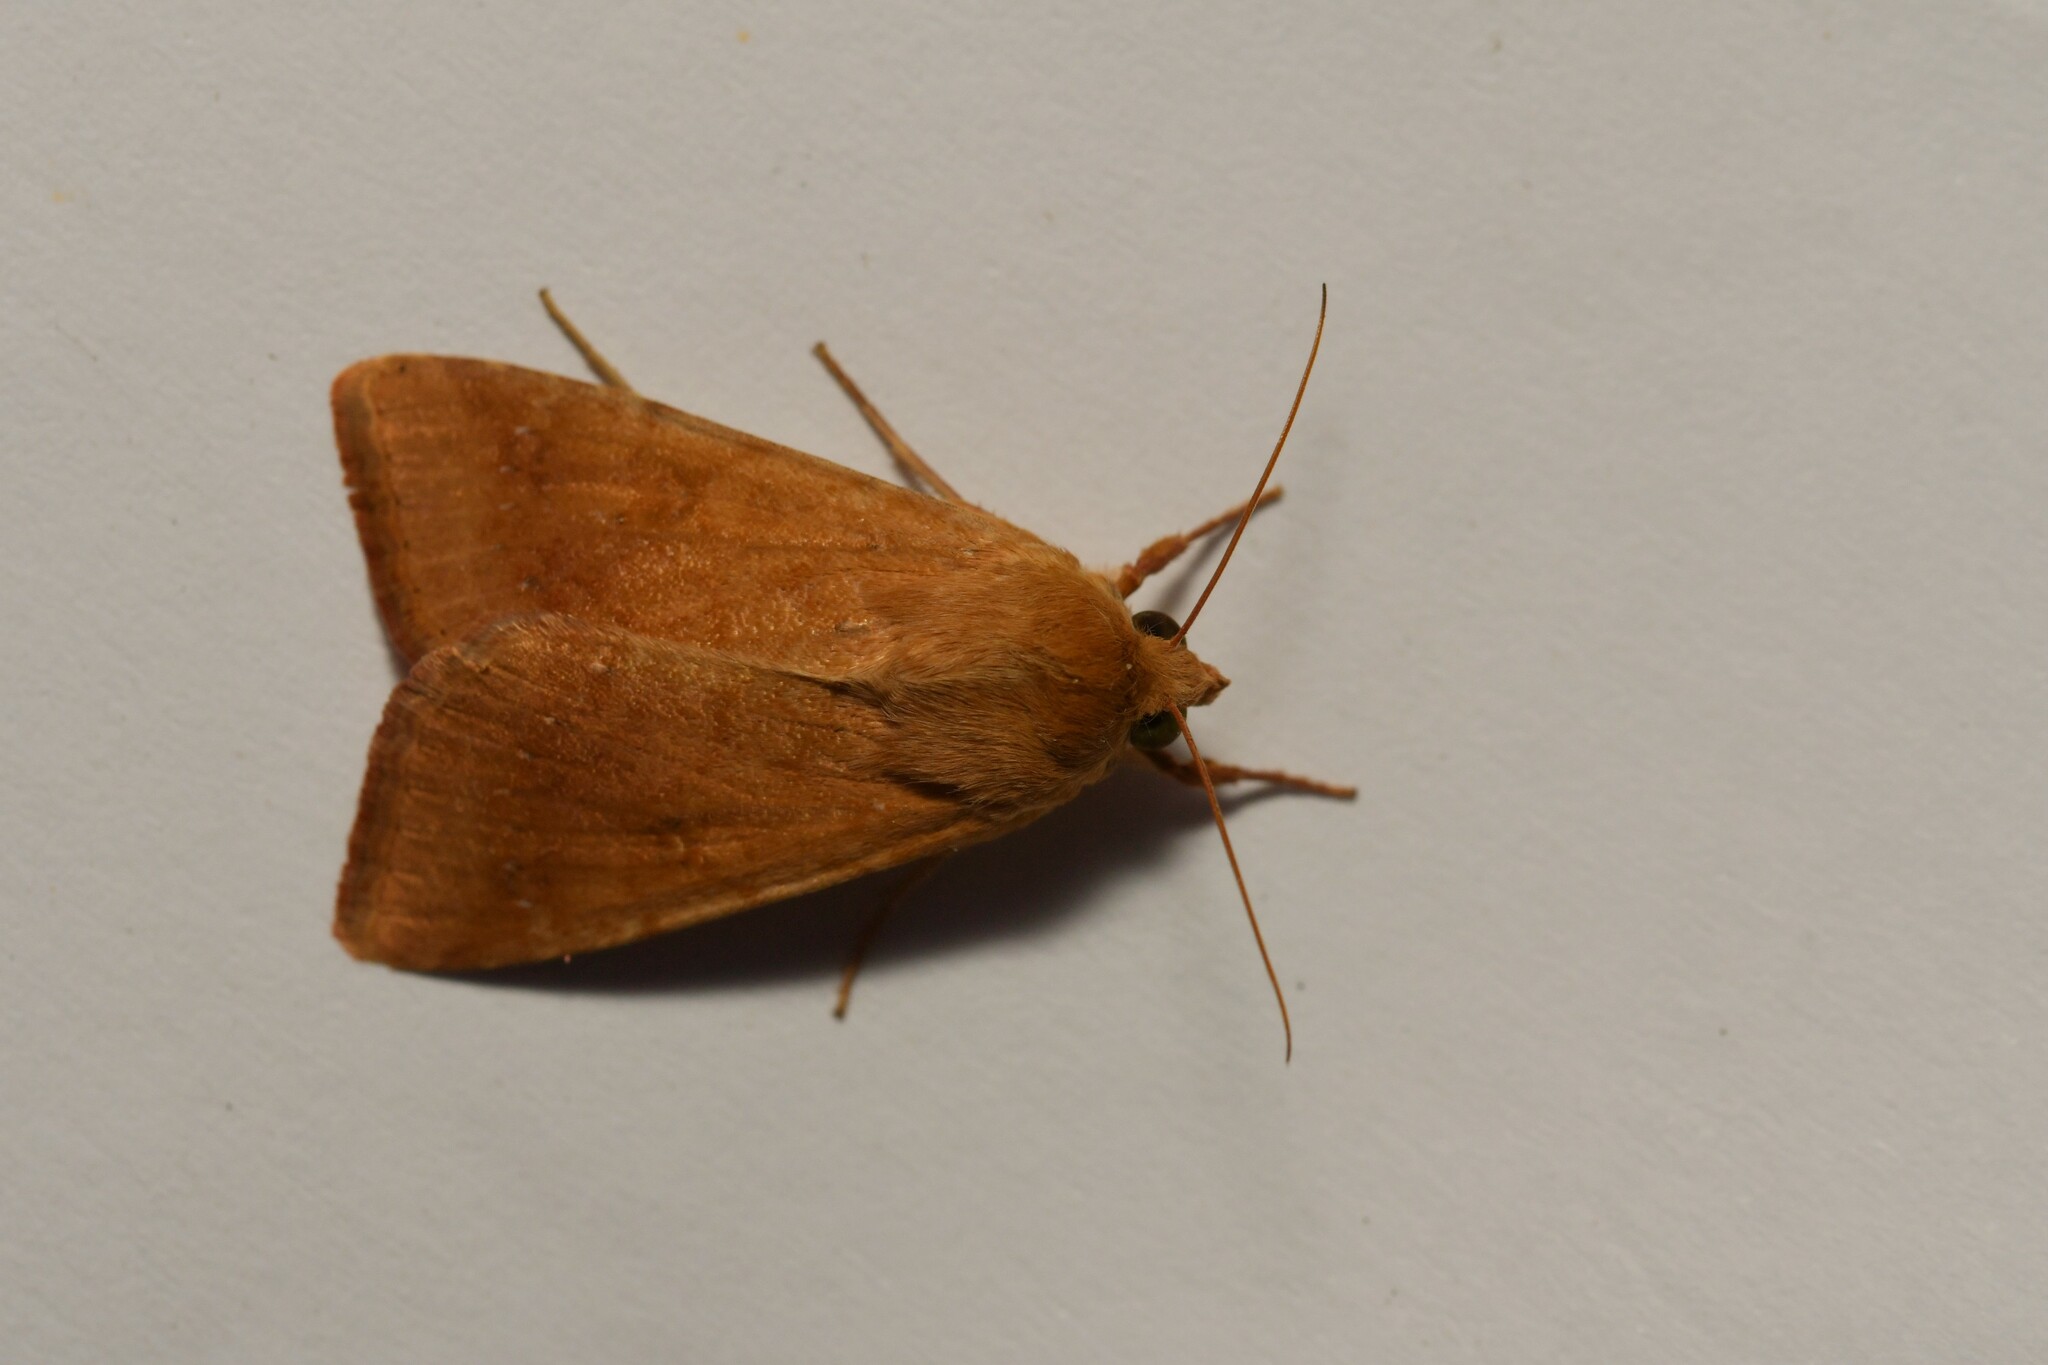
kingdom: Animalia
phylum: Arthropoda
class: Insecta
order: Lepidoptera
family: Noctuidae
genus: Helicoverpa
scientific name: Helicoverpa armigera
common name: Cotton bollworm
